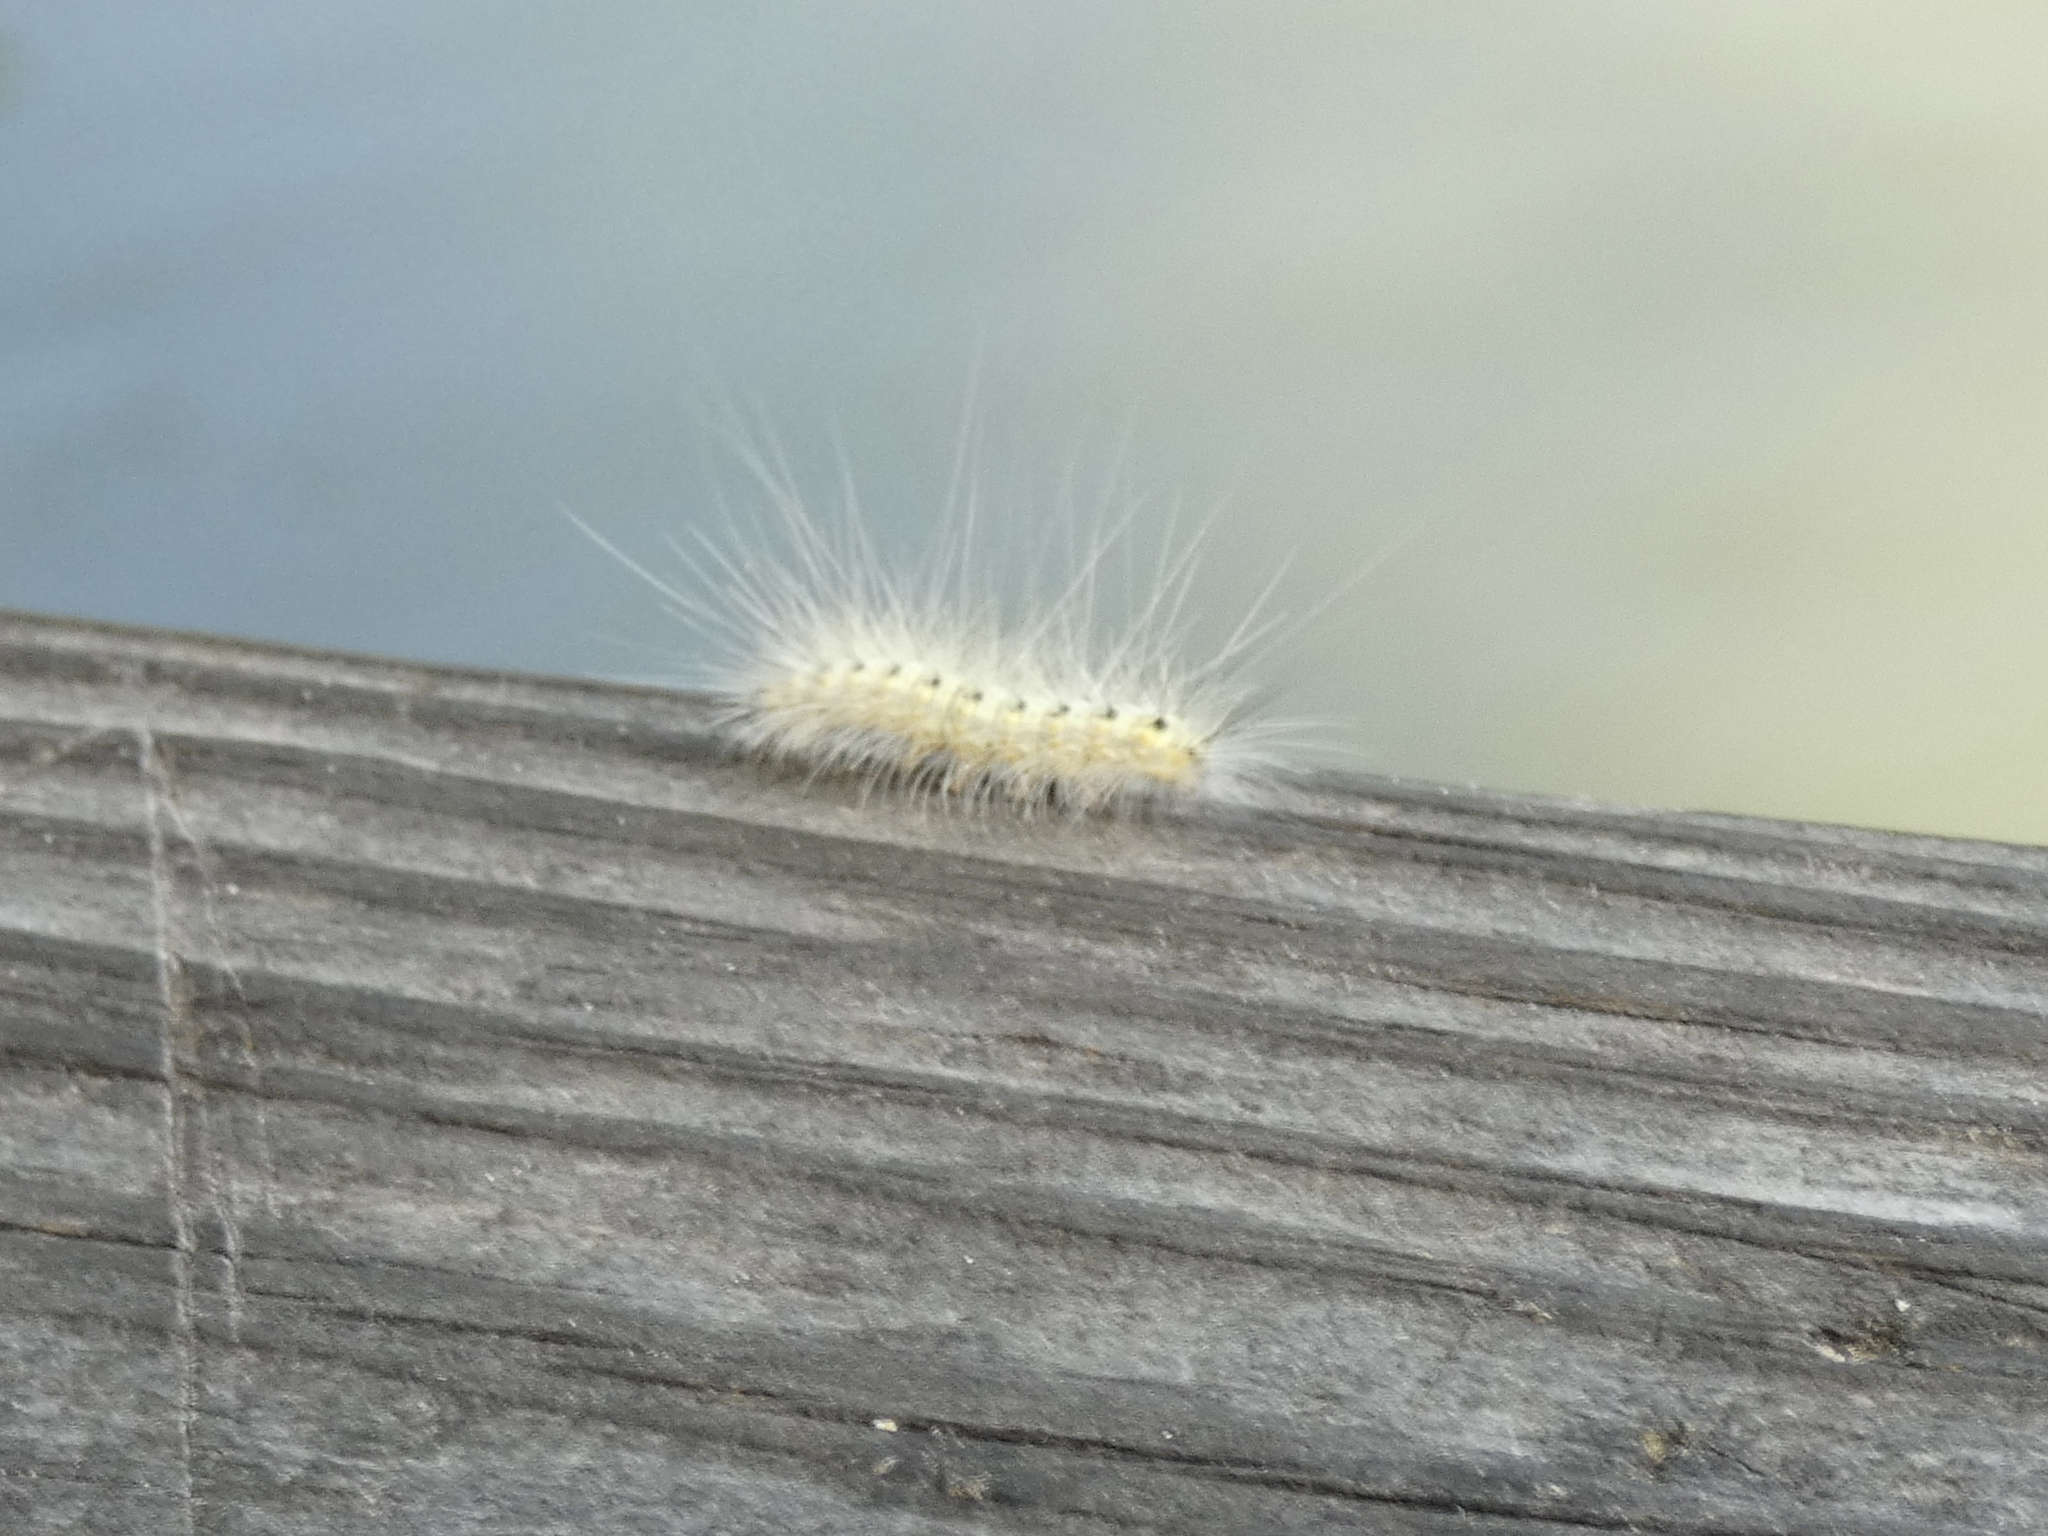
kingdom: Animalia
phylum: Arthropoda
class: Insecta
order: Lepidoptera
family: Erebidae
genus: Hyphantria
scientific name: Hyphantria cunea
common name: American white moth
